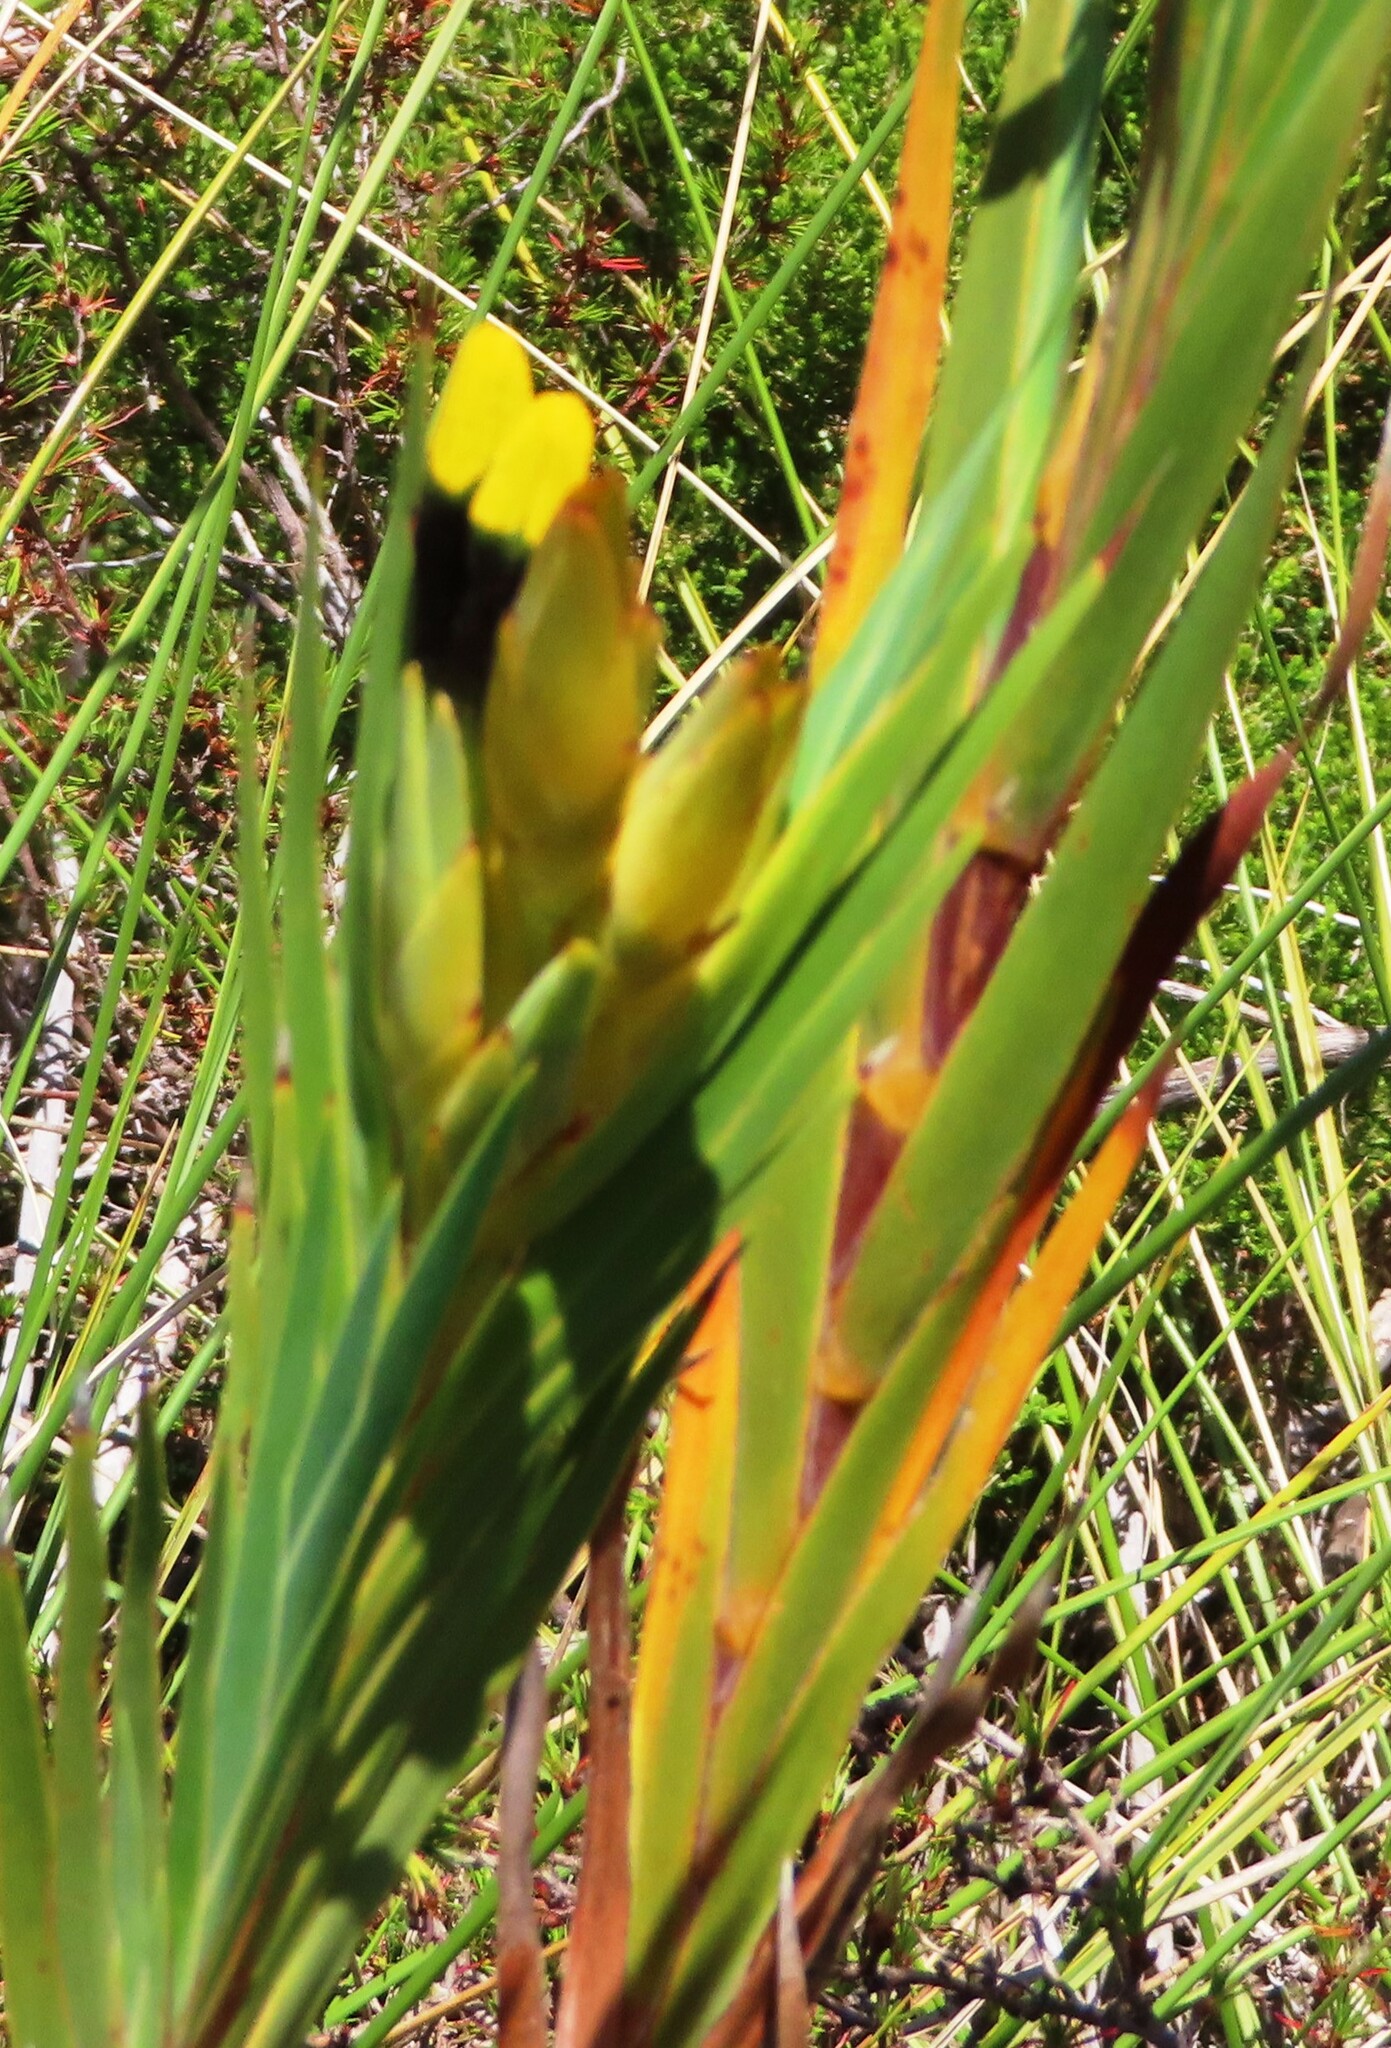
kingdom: Plantae
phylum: Tracheophyta
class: Liliopsida
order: Asparagales
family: Iridaceae
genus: Witsenia
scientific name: Witsenia maura
